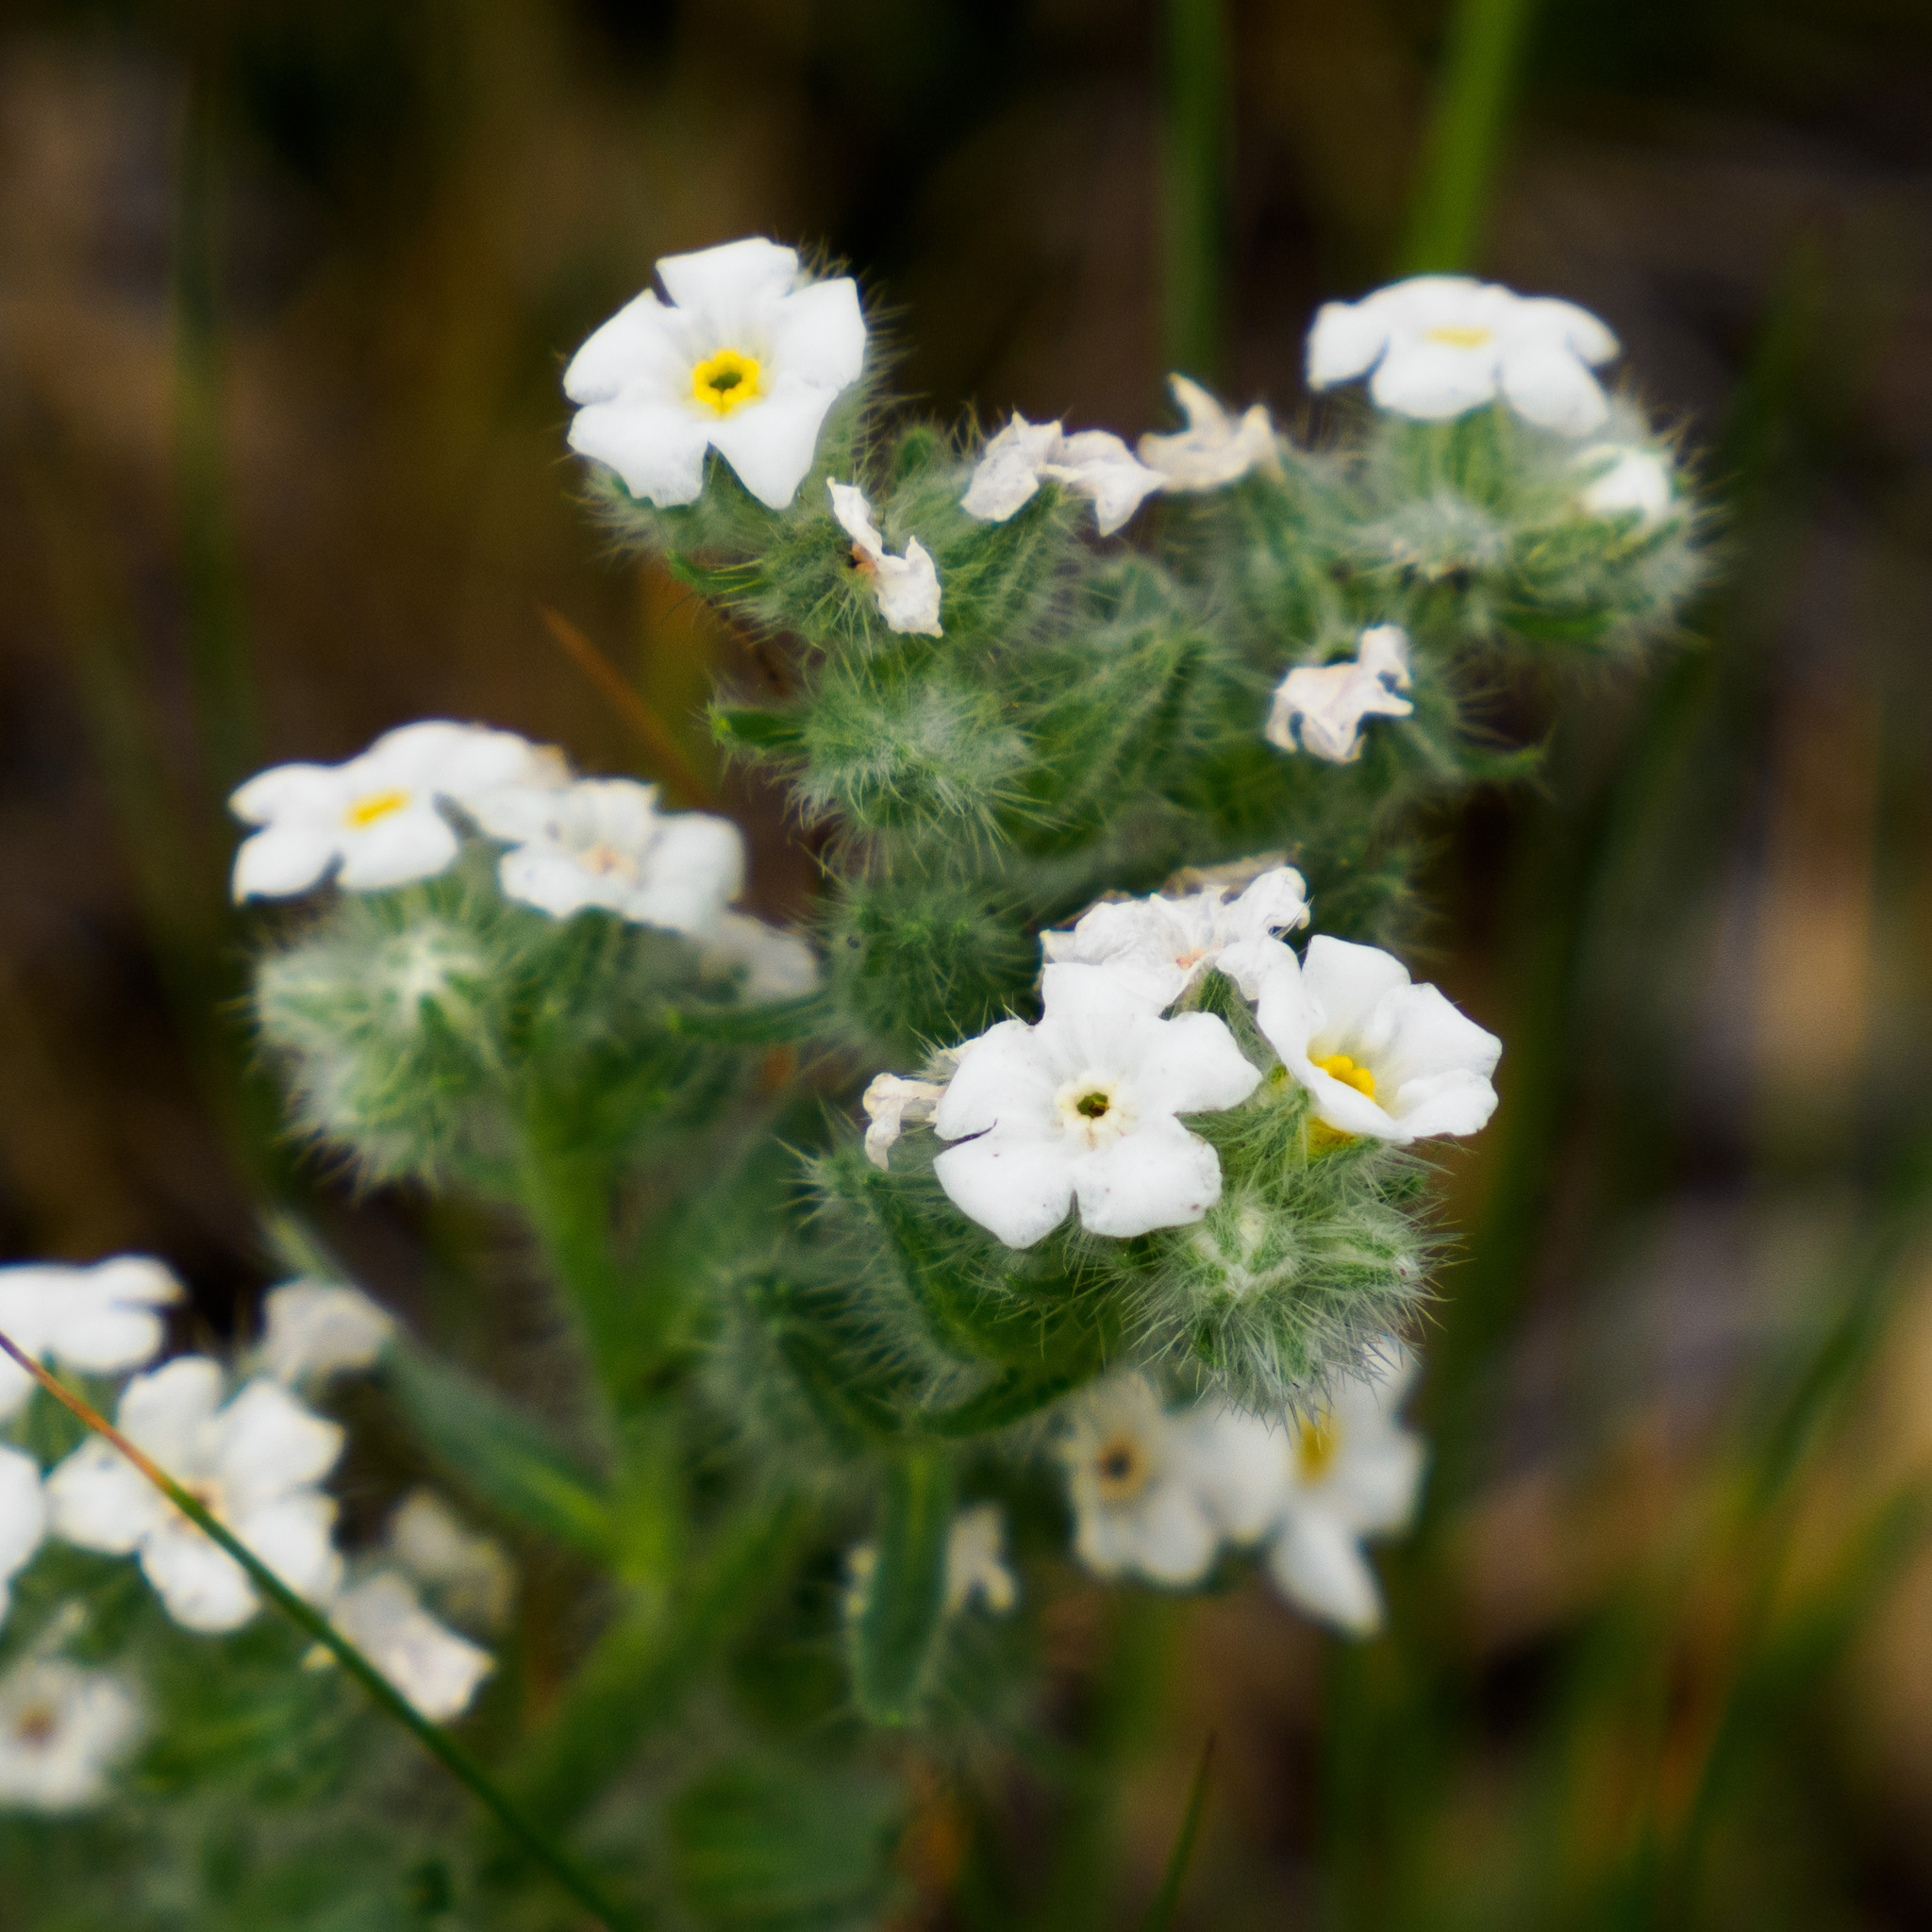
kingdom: Plantae
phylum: Tracheophyta
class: Magnoliopsida
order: Boraginales
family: Boraginaceae
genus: Oreocarya
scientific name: Oreocarya glomerata
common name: Macoun's cryptantha
